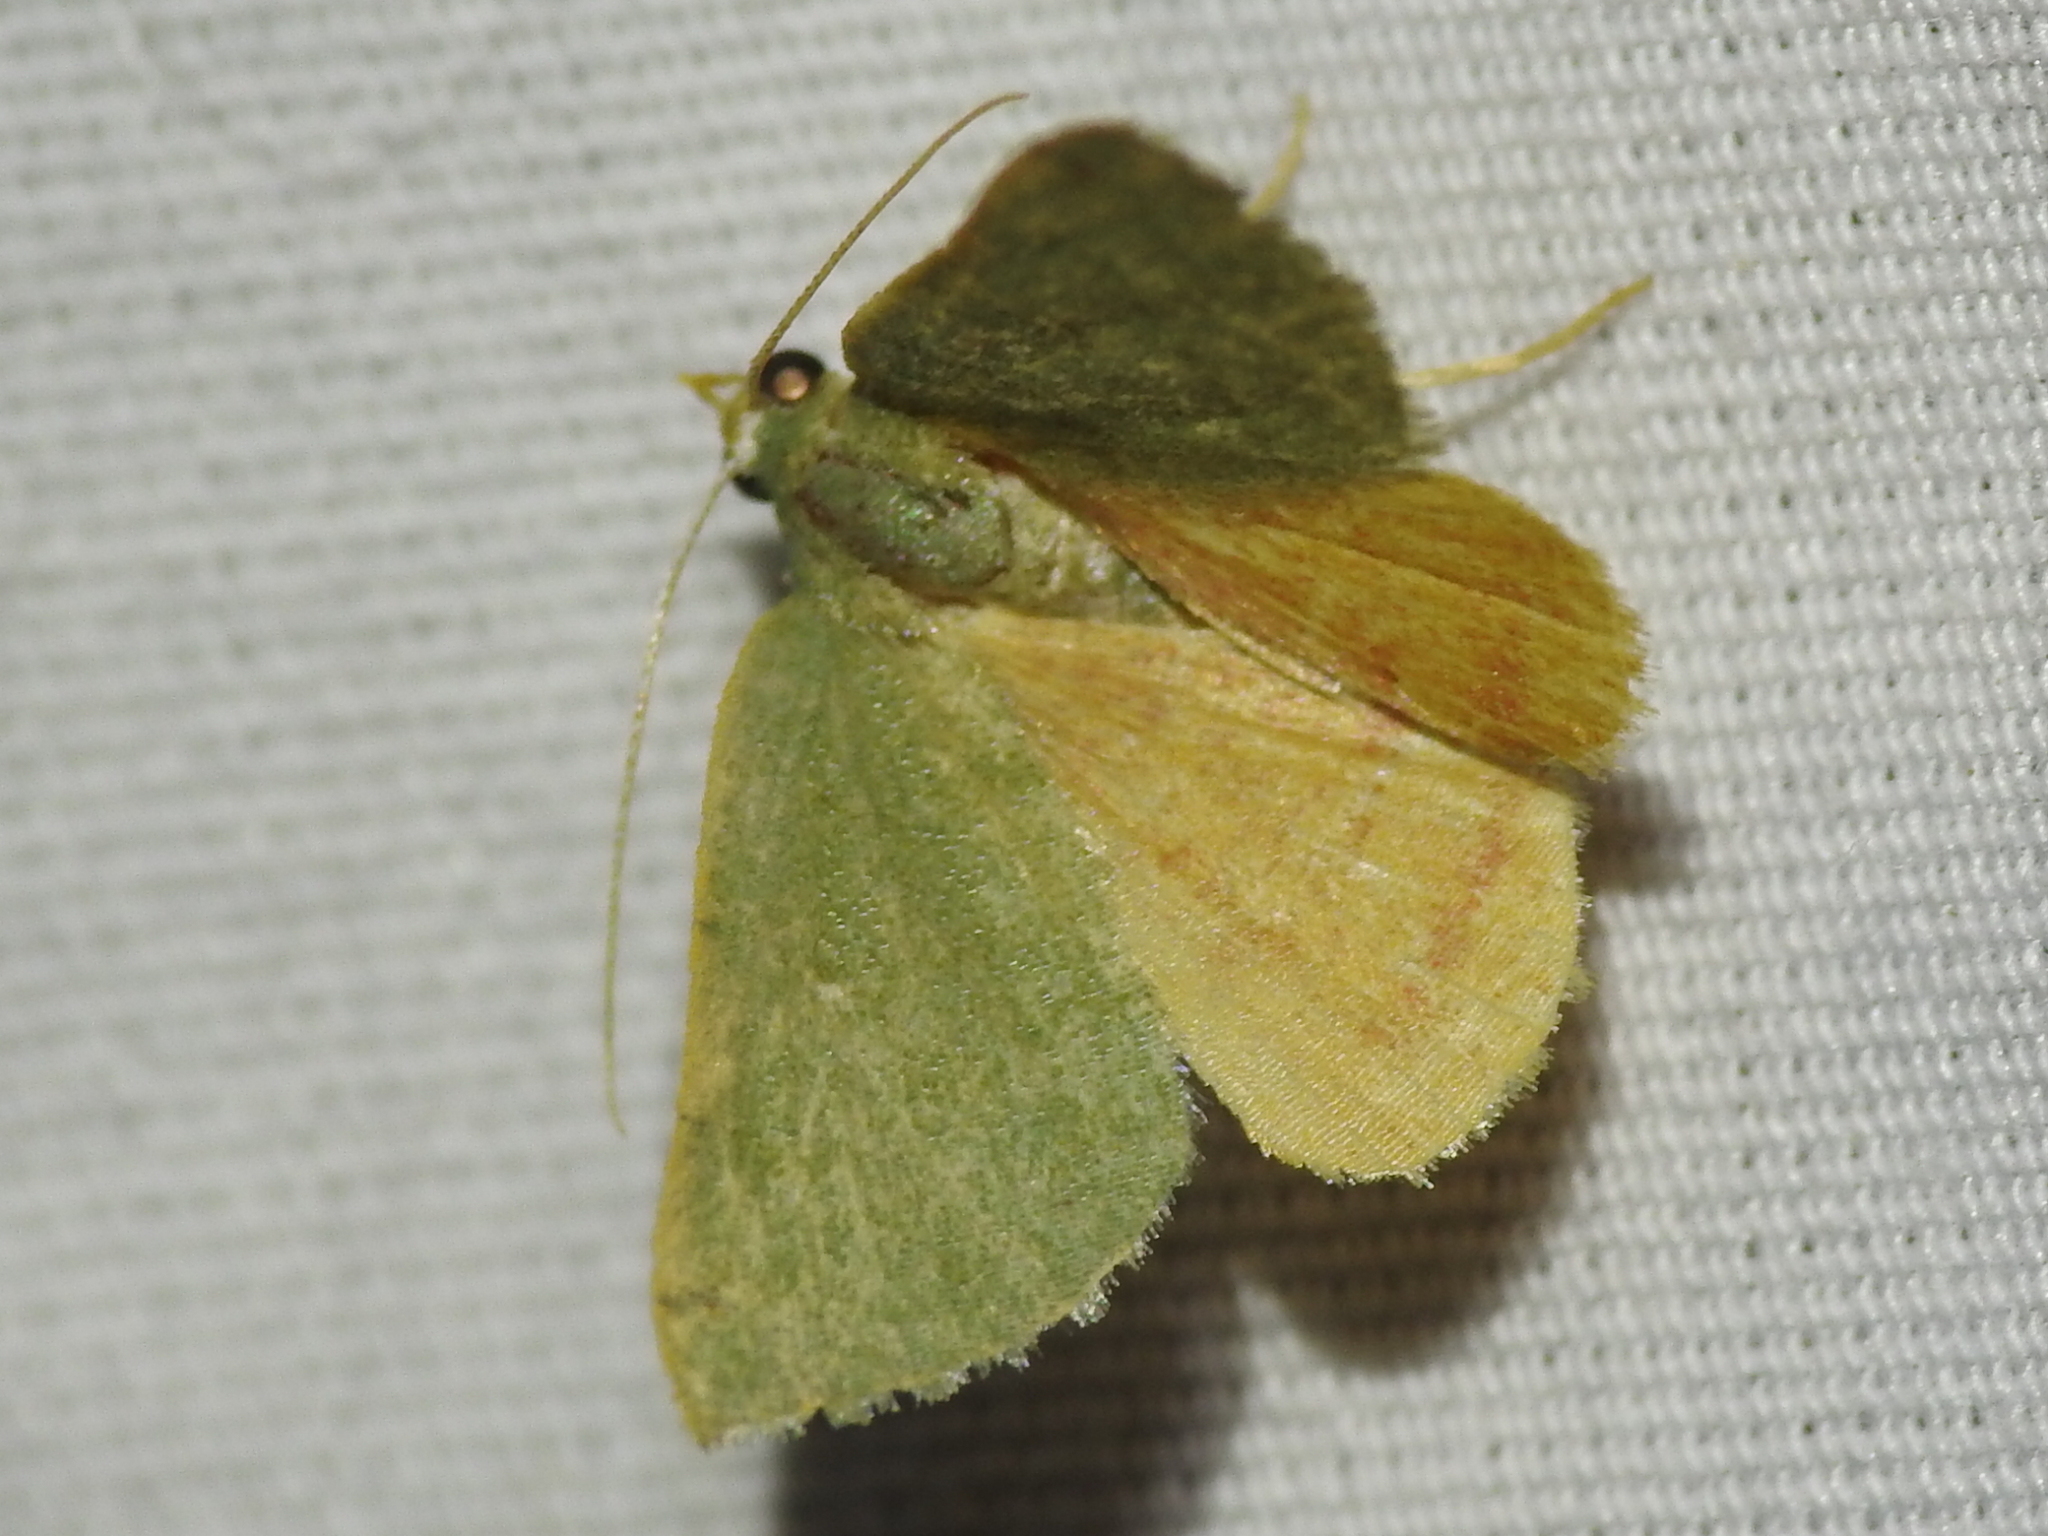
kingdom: Animalia
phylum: Arthropoda
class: Insecta
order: Lepidoptera
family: Geometridae
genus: Chloraspilates
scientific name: Chloraspilates bicoloraria
